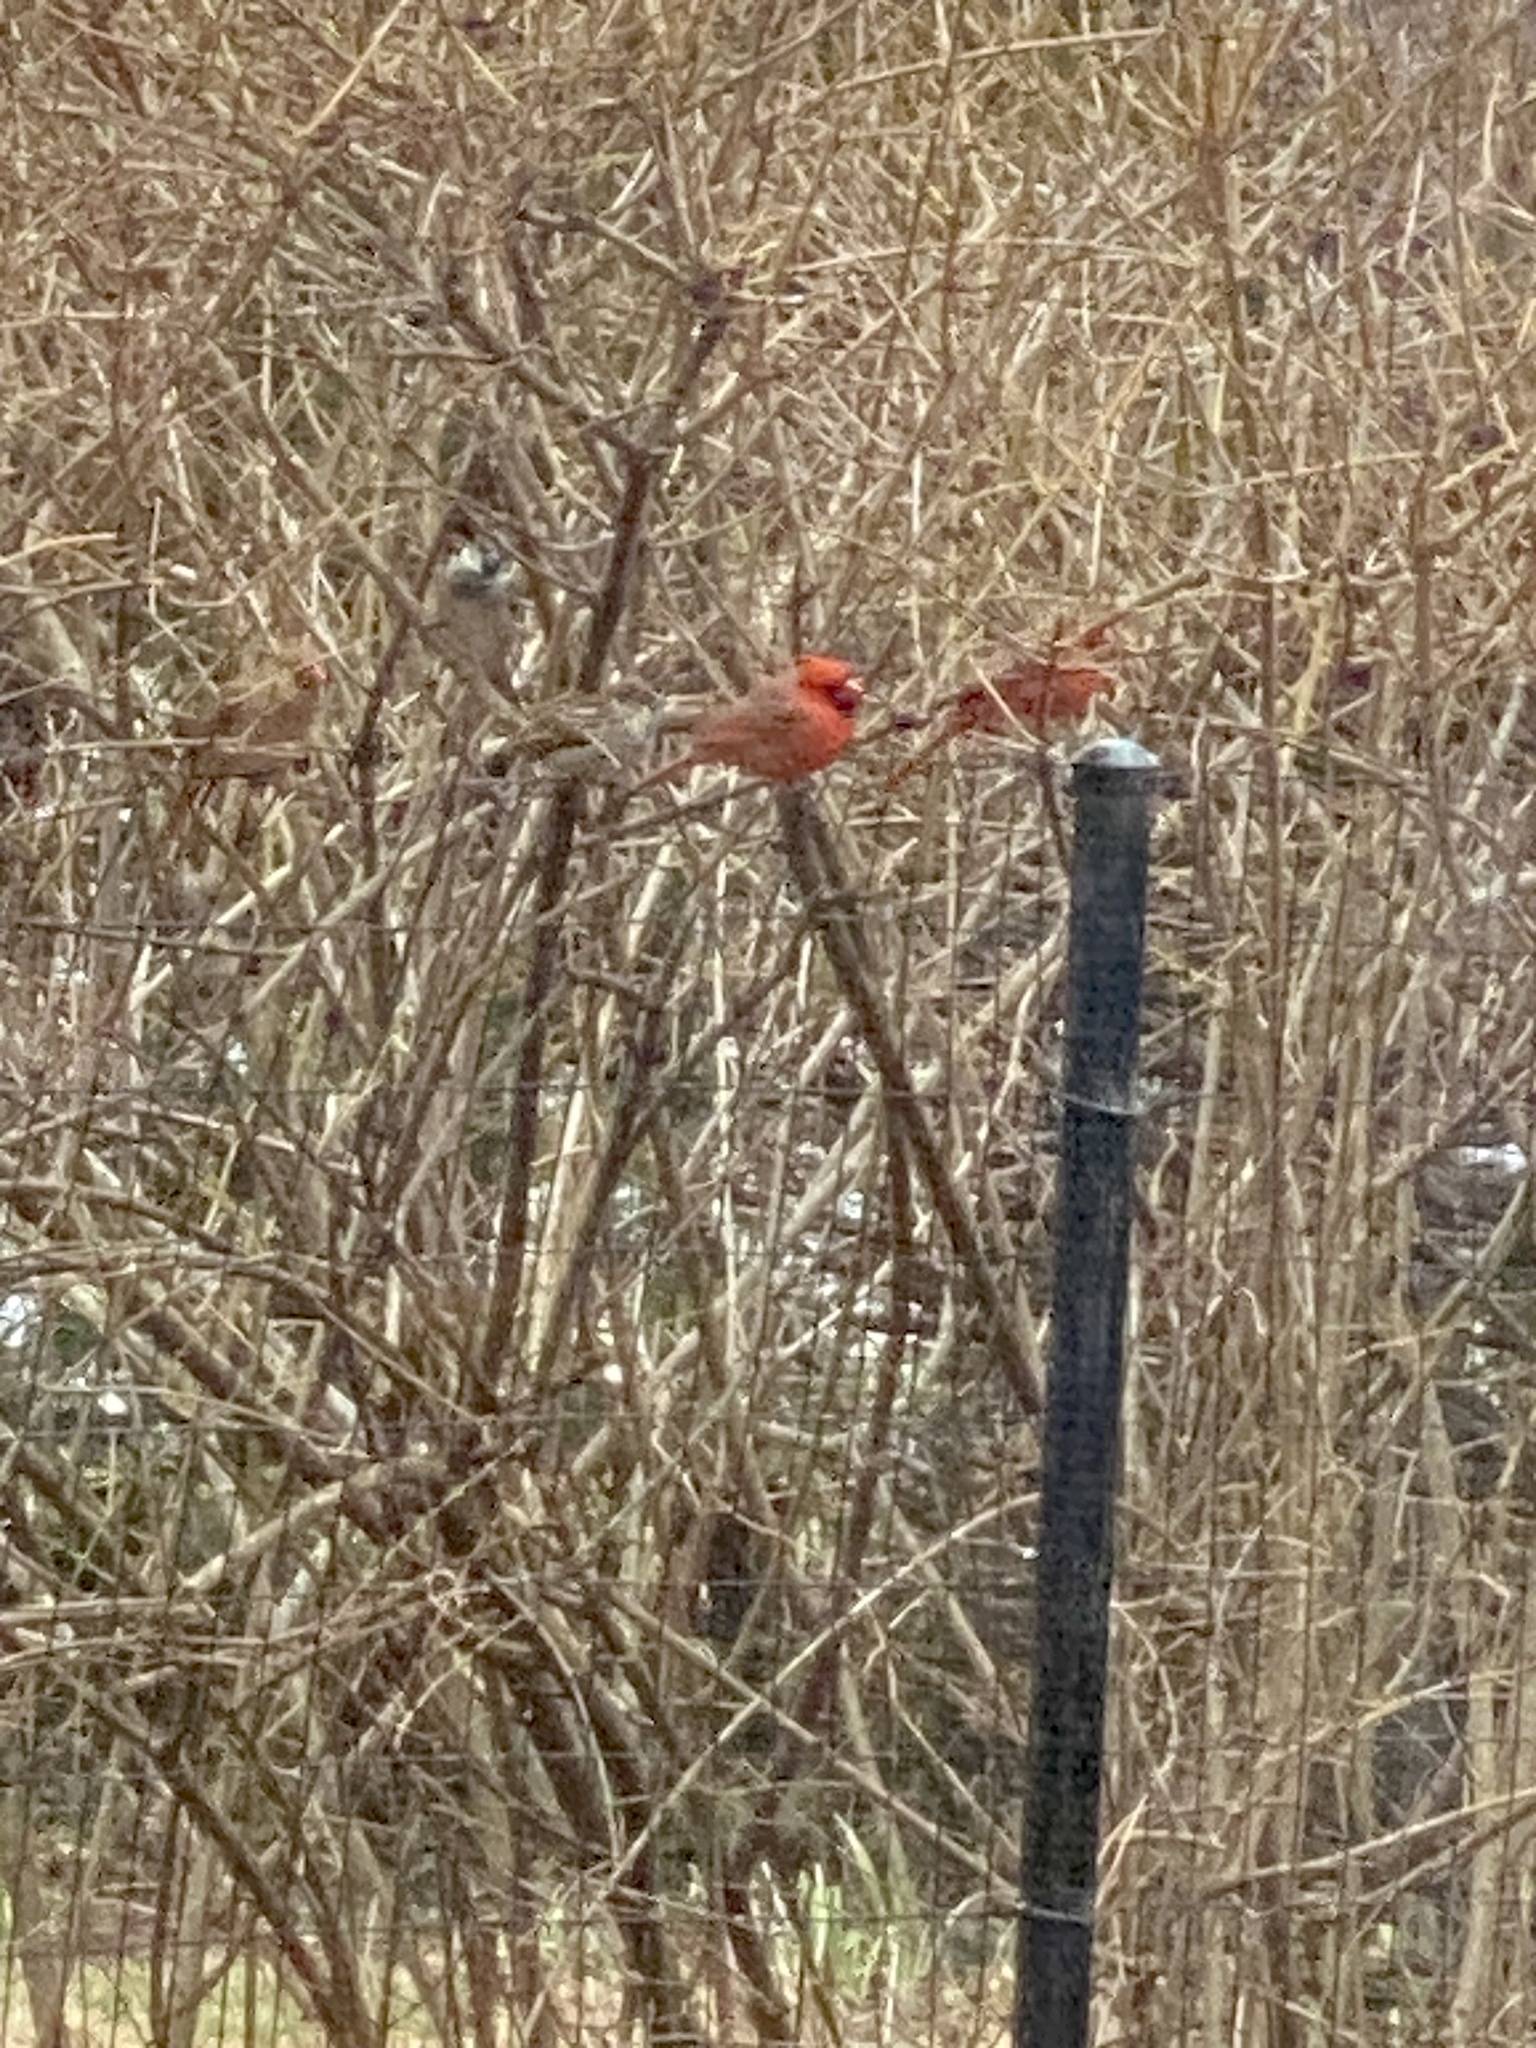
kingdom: Animalia
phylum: Chordata
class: Aves
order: Passeriformes
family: Cardinalidae
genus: Cardinalis
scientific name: Cardinalis cardinalis
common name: Northern cardinal
